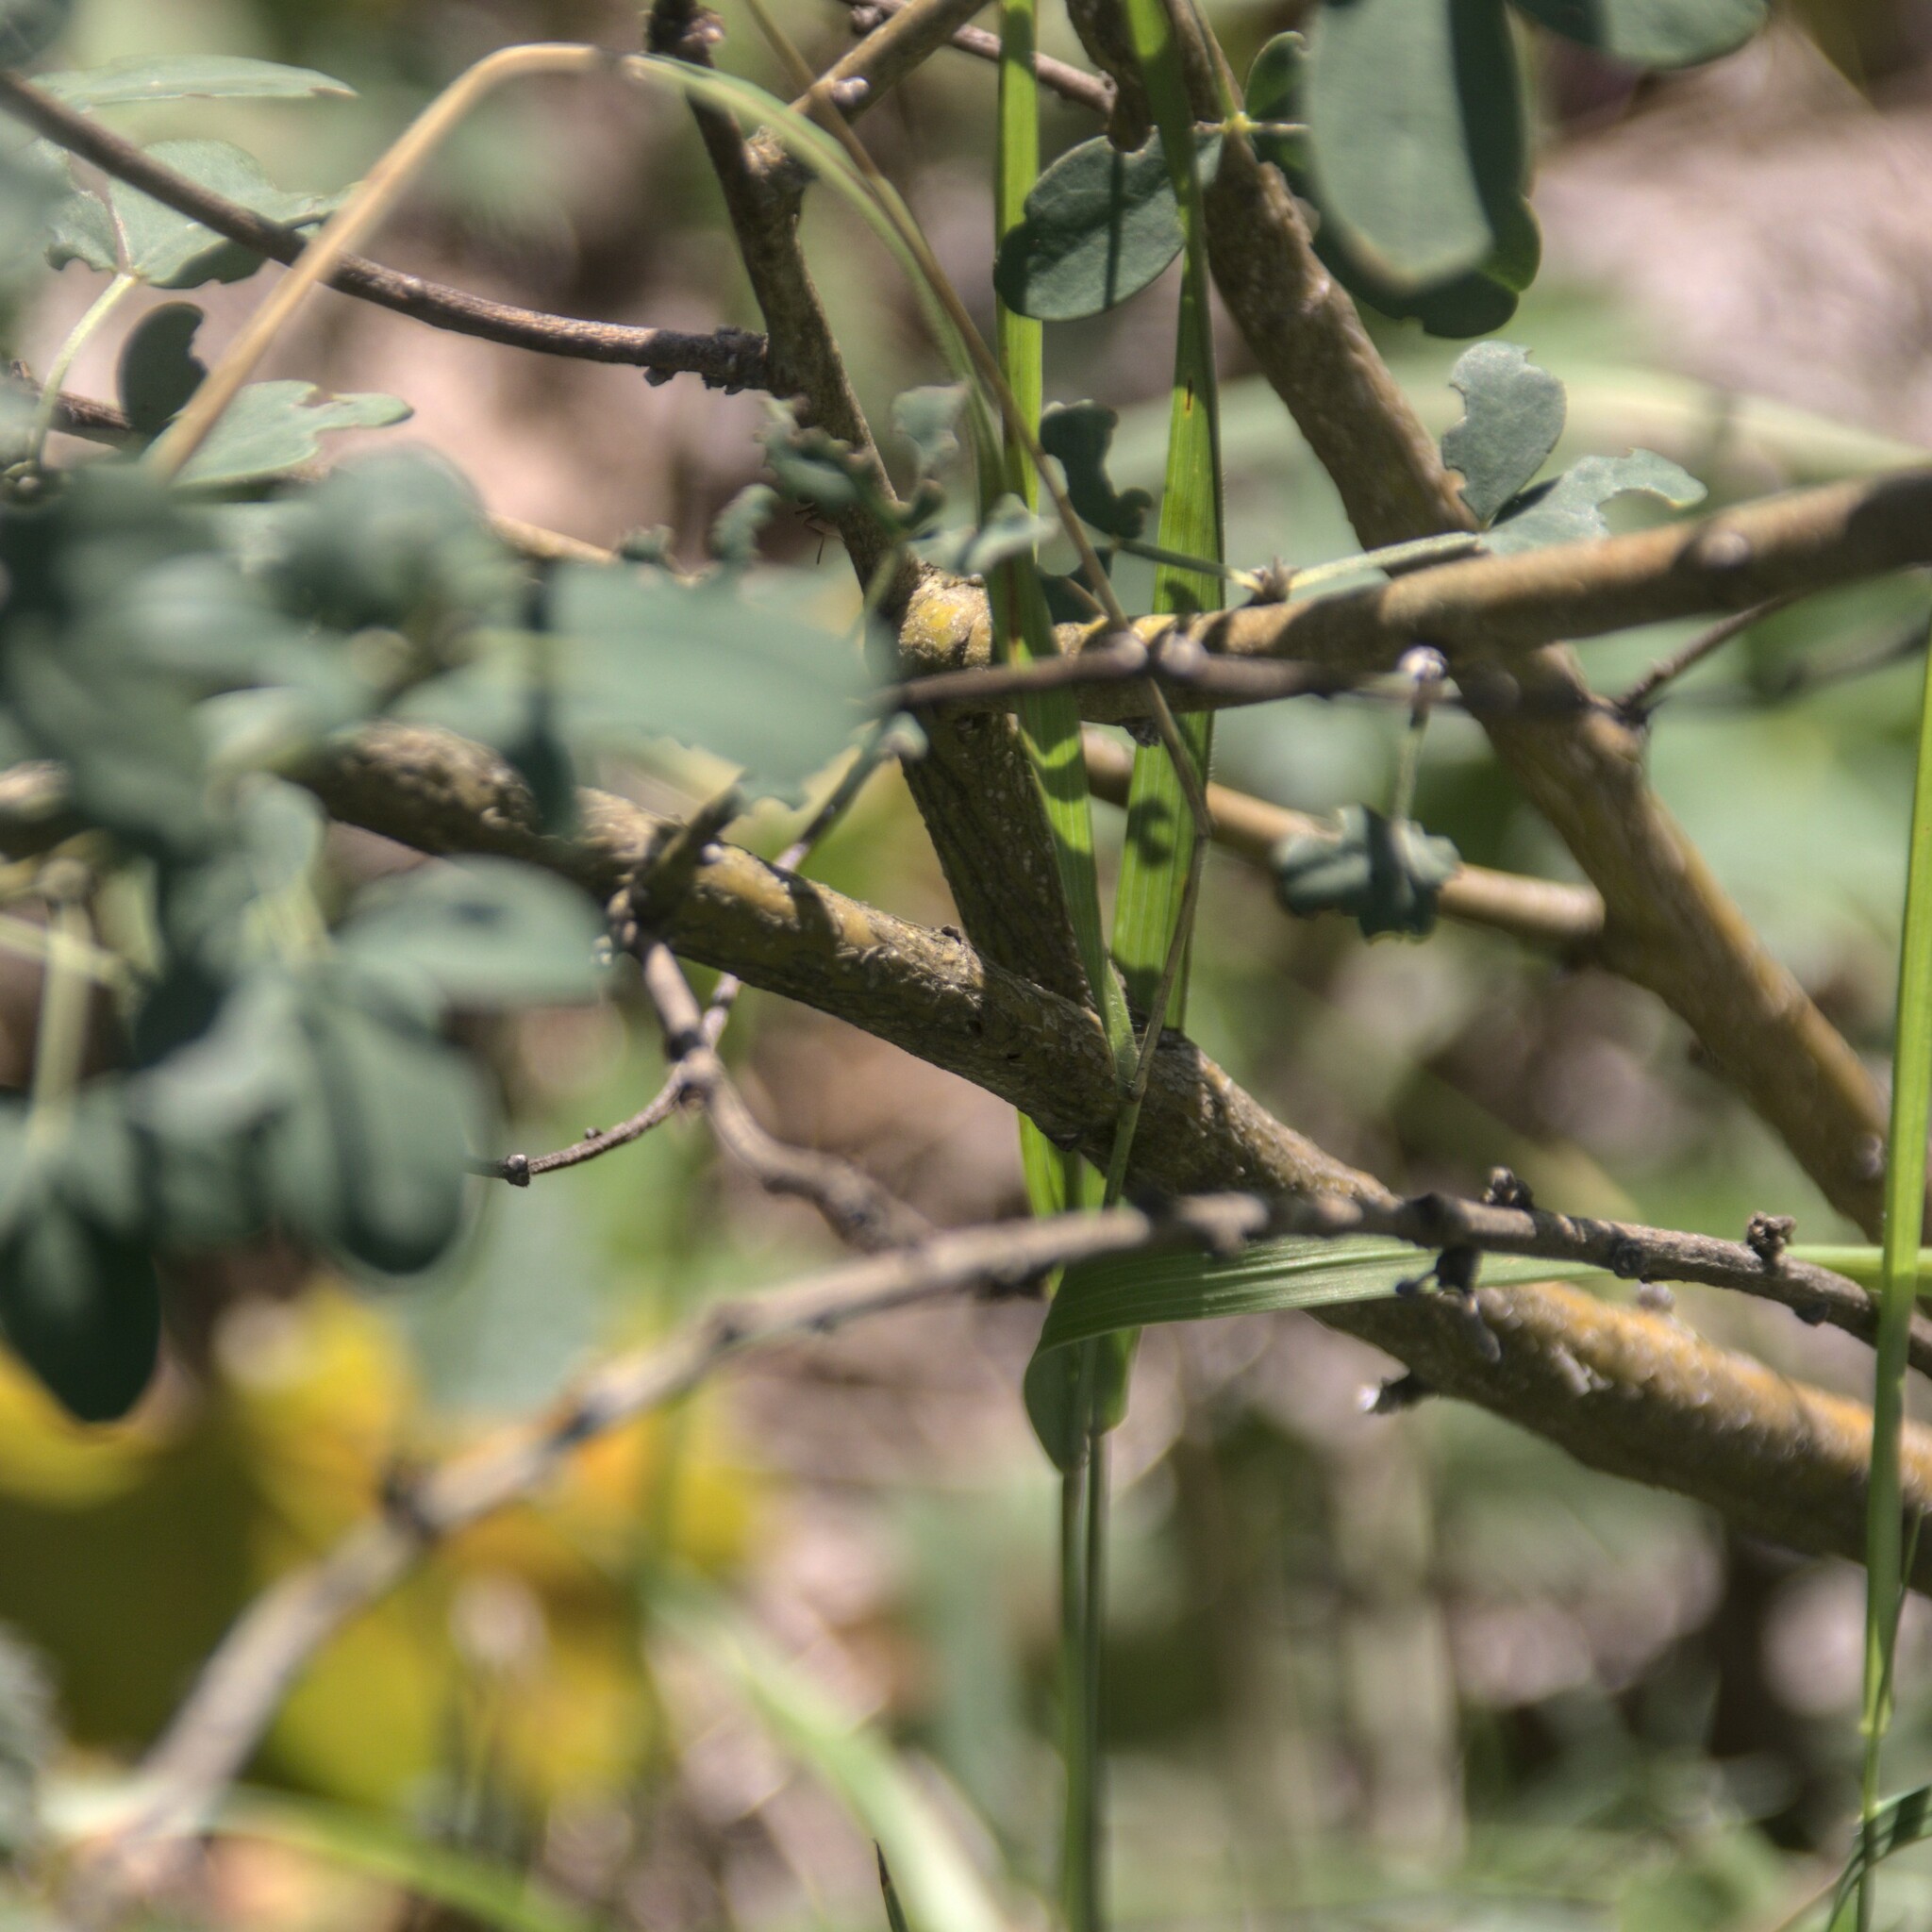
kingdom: Plantae
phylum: Tracheophyta
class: Magnoliopsida
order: Fabales
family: Fabaceae
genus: Chamaecytisus
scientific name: Chamaecytisus ruthenicus
